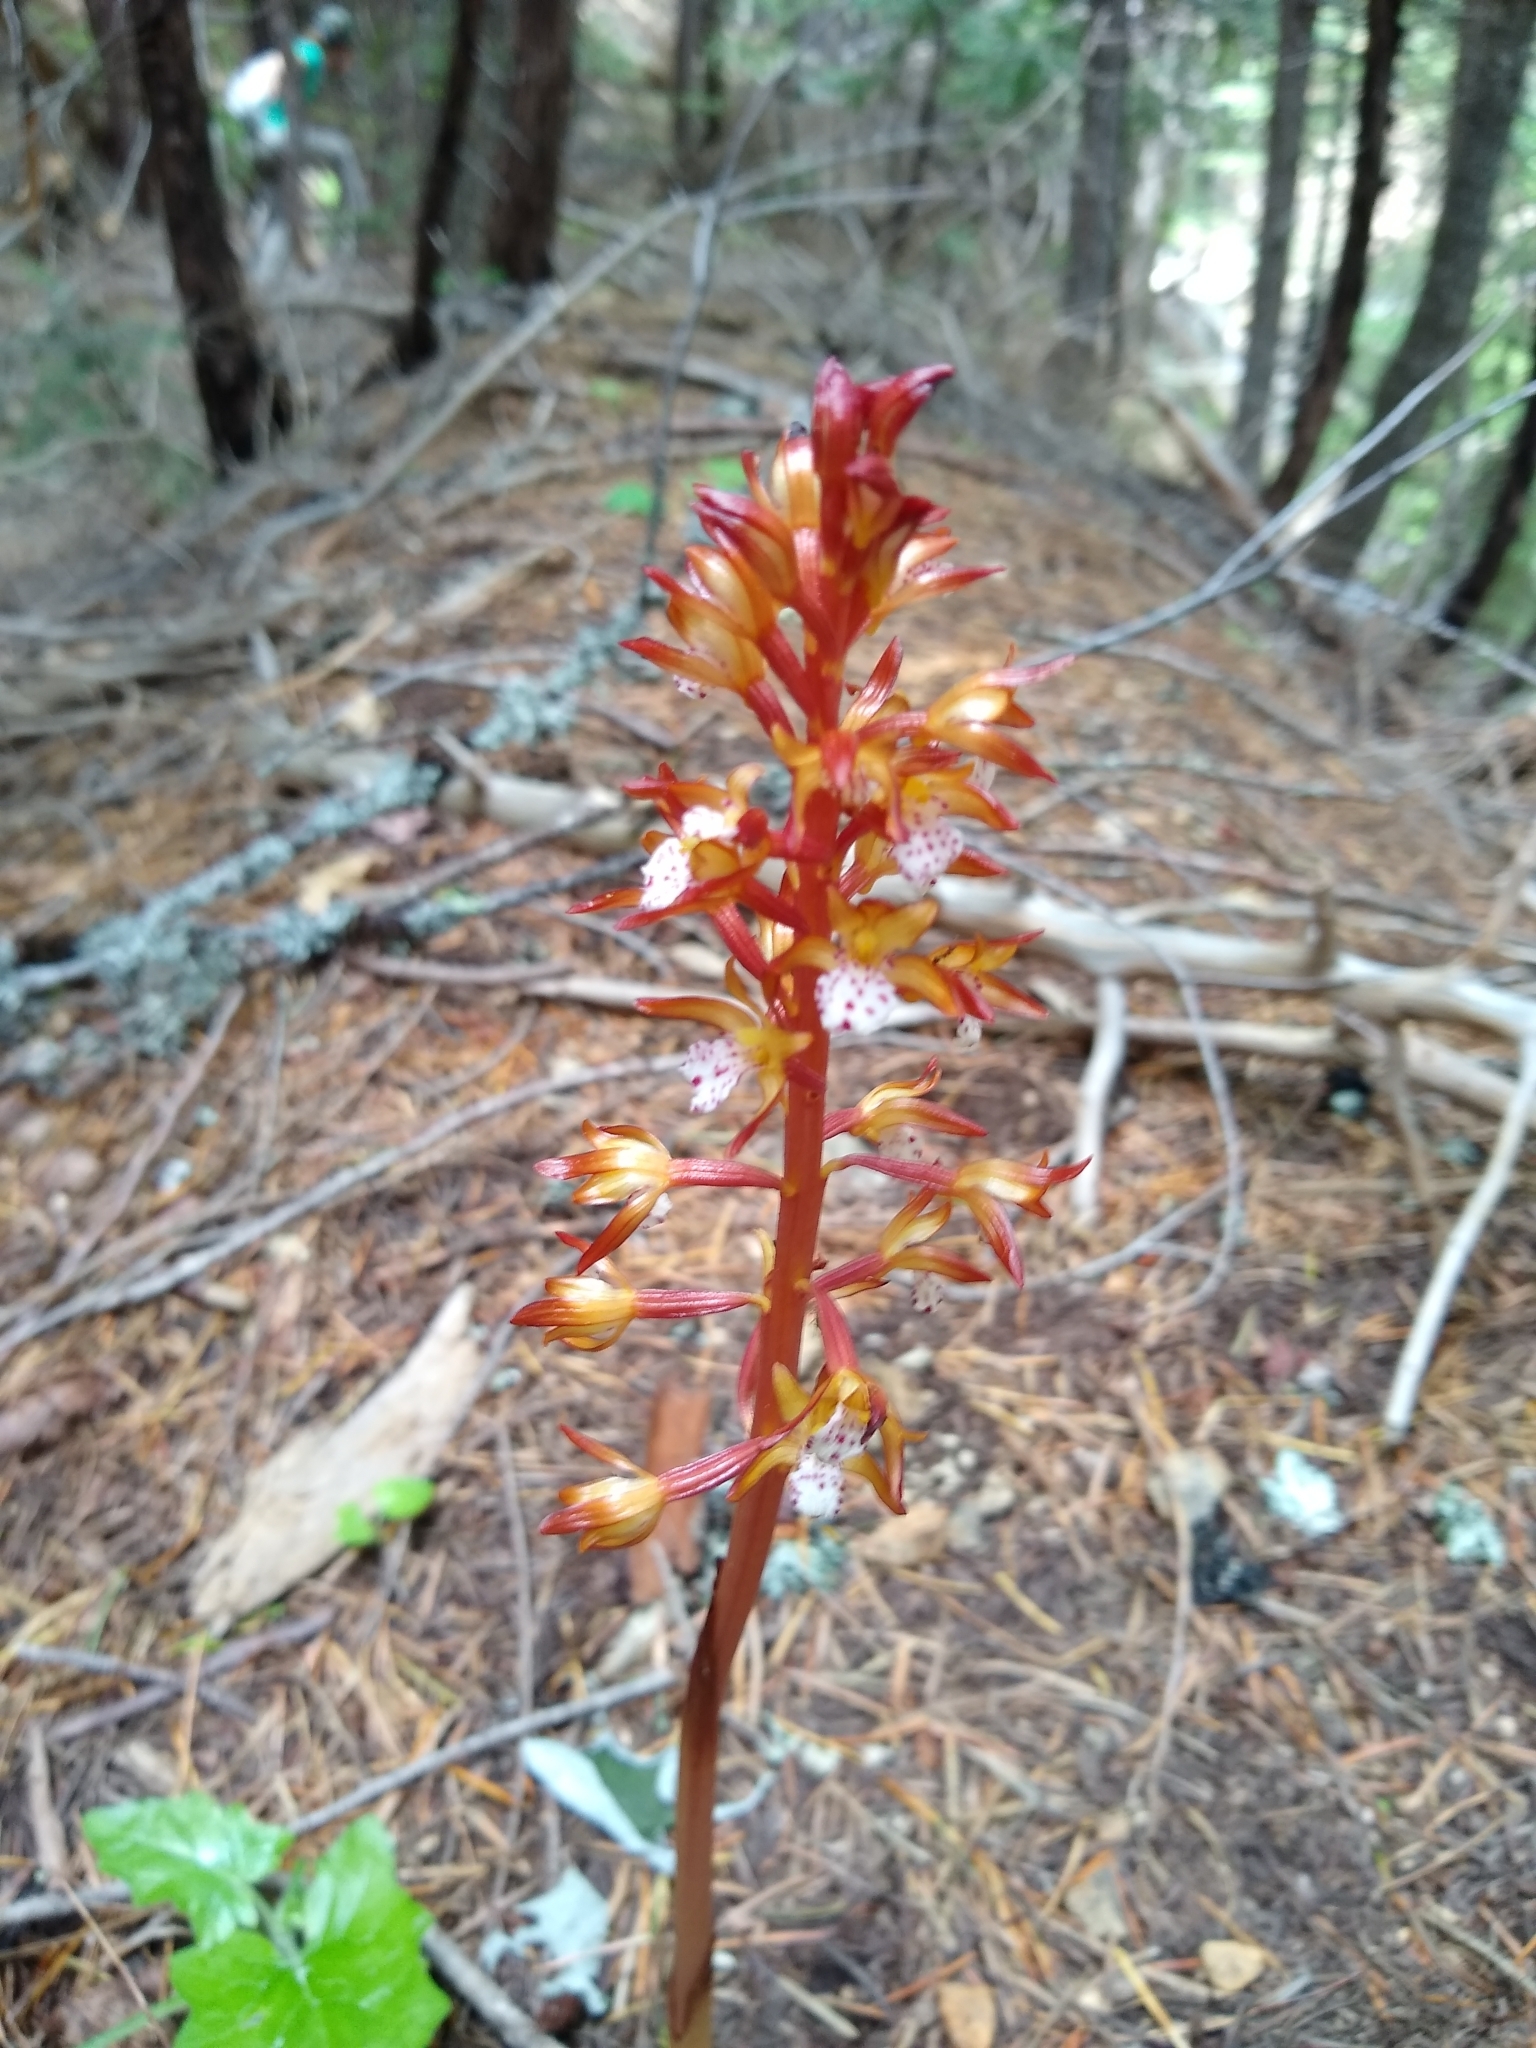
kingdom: Plantae
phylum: Tracheophyta
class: Liliopsida
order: Asparagales
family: Orchidaceae
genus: Corallorhiza
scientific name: Corallorhiza maculata
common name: Spotted coralroot
